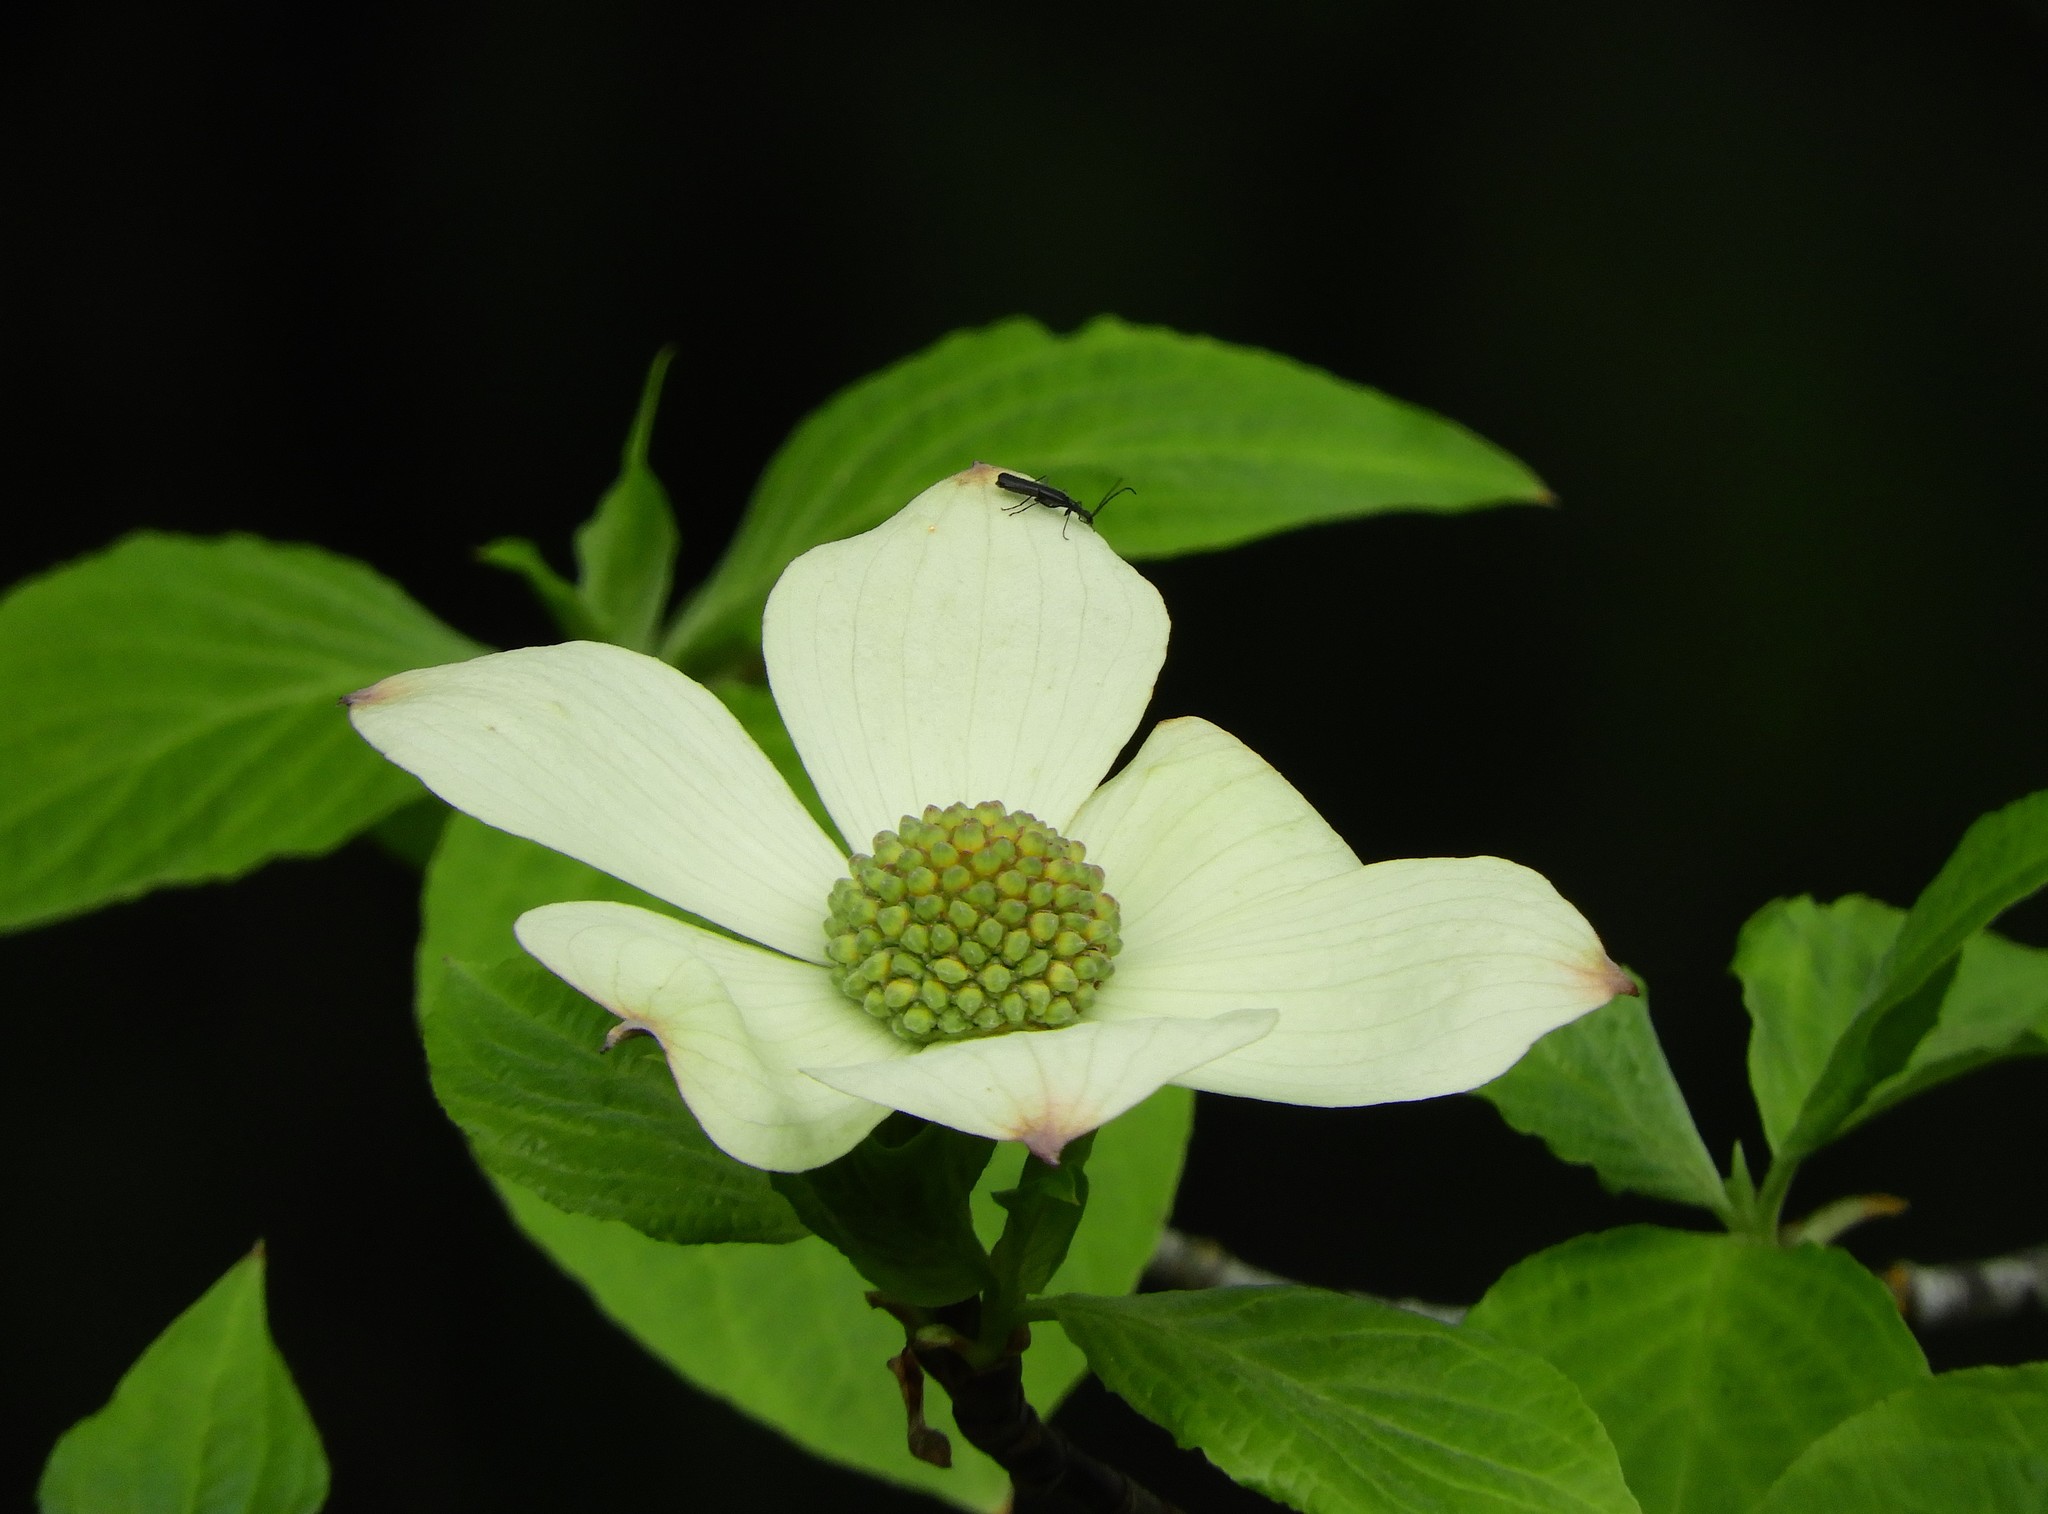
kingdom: Plantae
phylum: Tracheophyta
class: Magnoliopsida
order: Cornales
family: Cornaceae
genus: Cornus
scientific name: Cornus nuttallii
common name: Pacific dogwood
